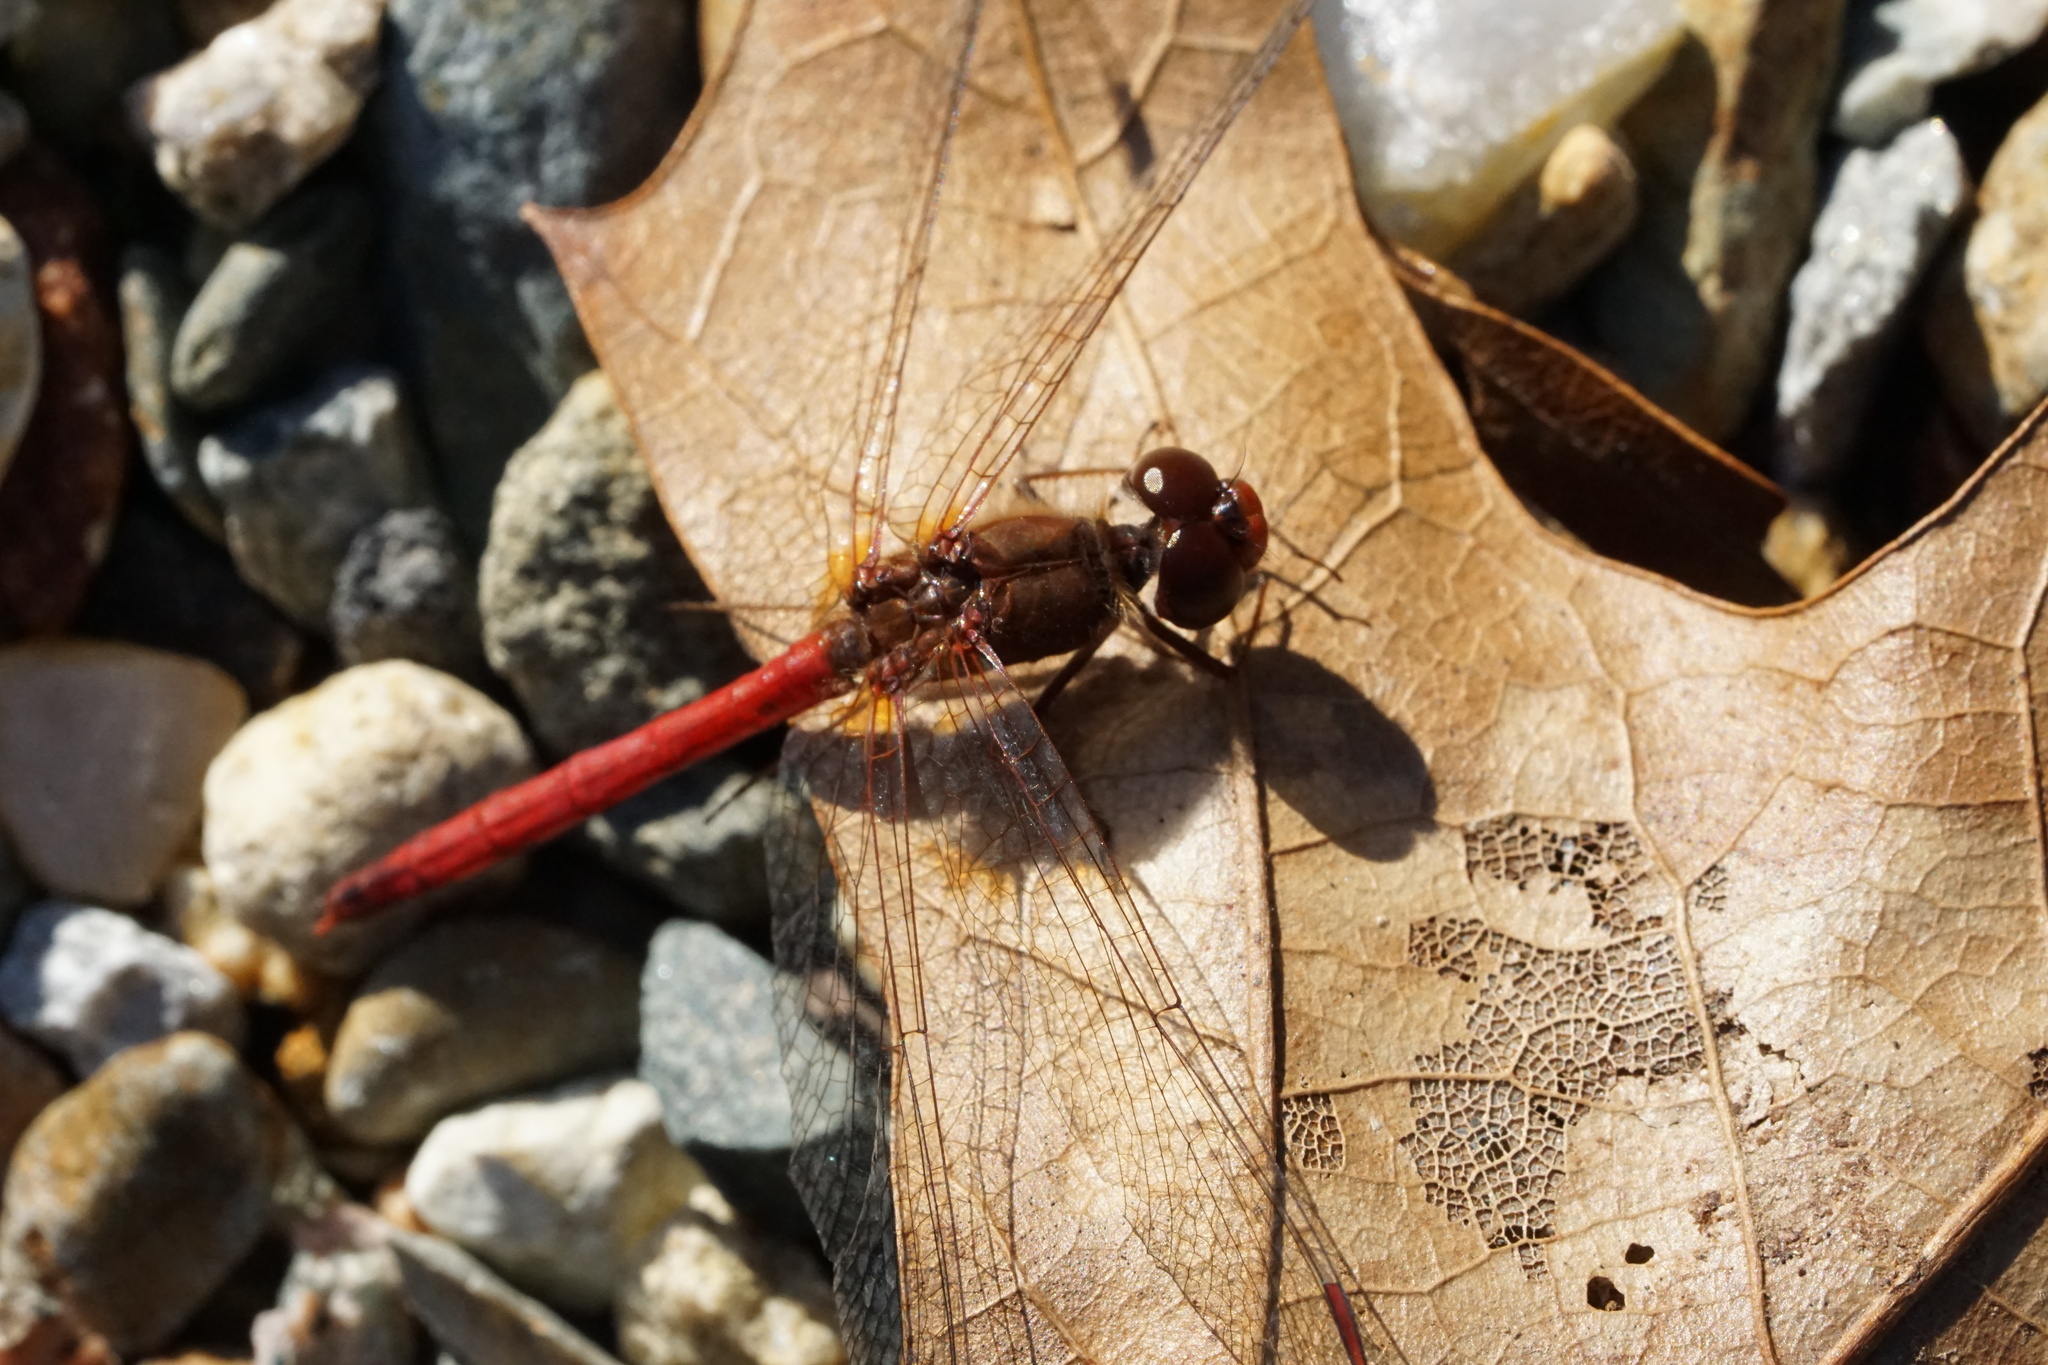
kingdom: Animalia
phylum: Arthropoda
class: Insecta
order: Odonata
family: Libellulidae
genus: Sympetrum
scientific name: Sympetrum vicinum
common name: Autumn meadowhawk
